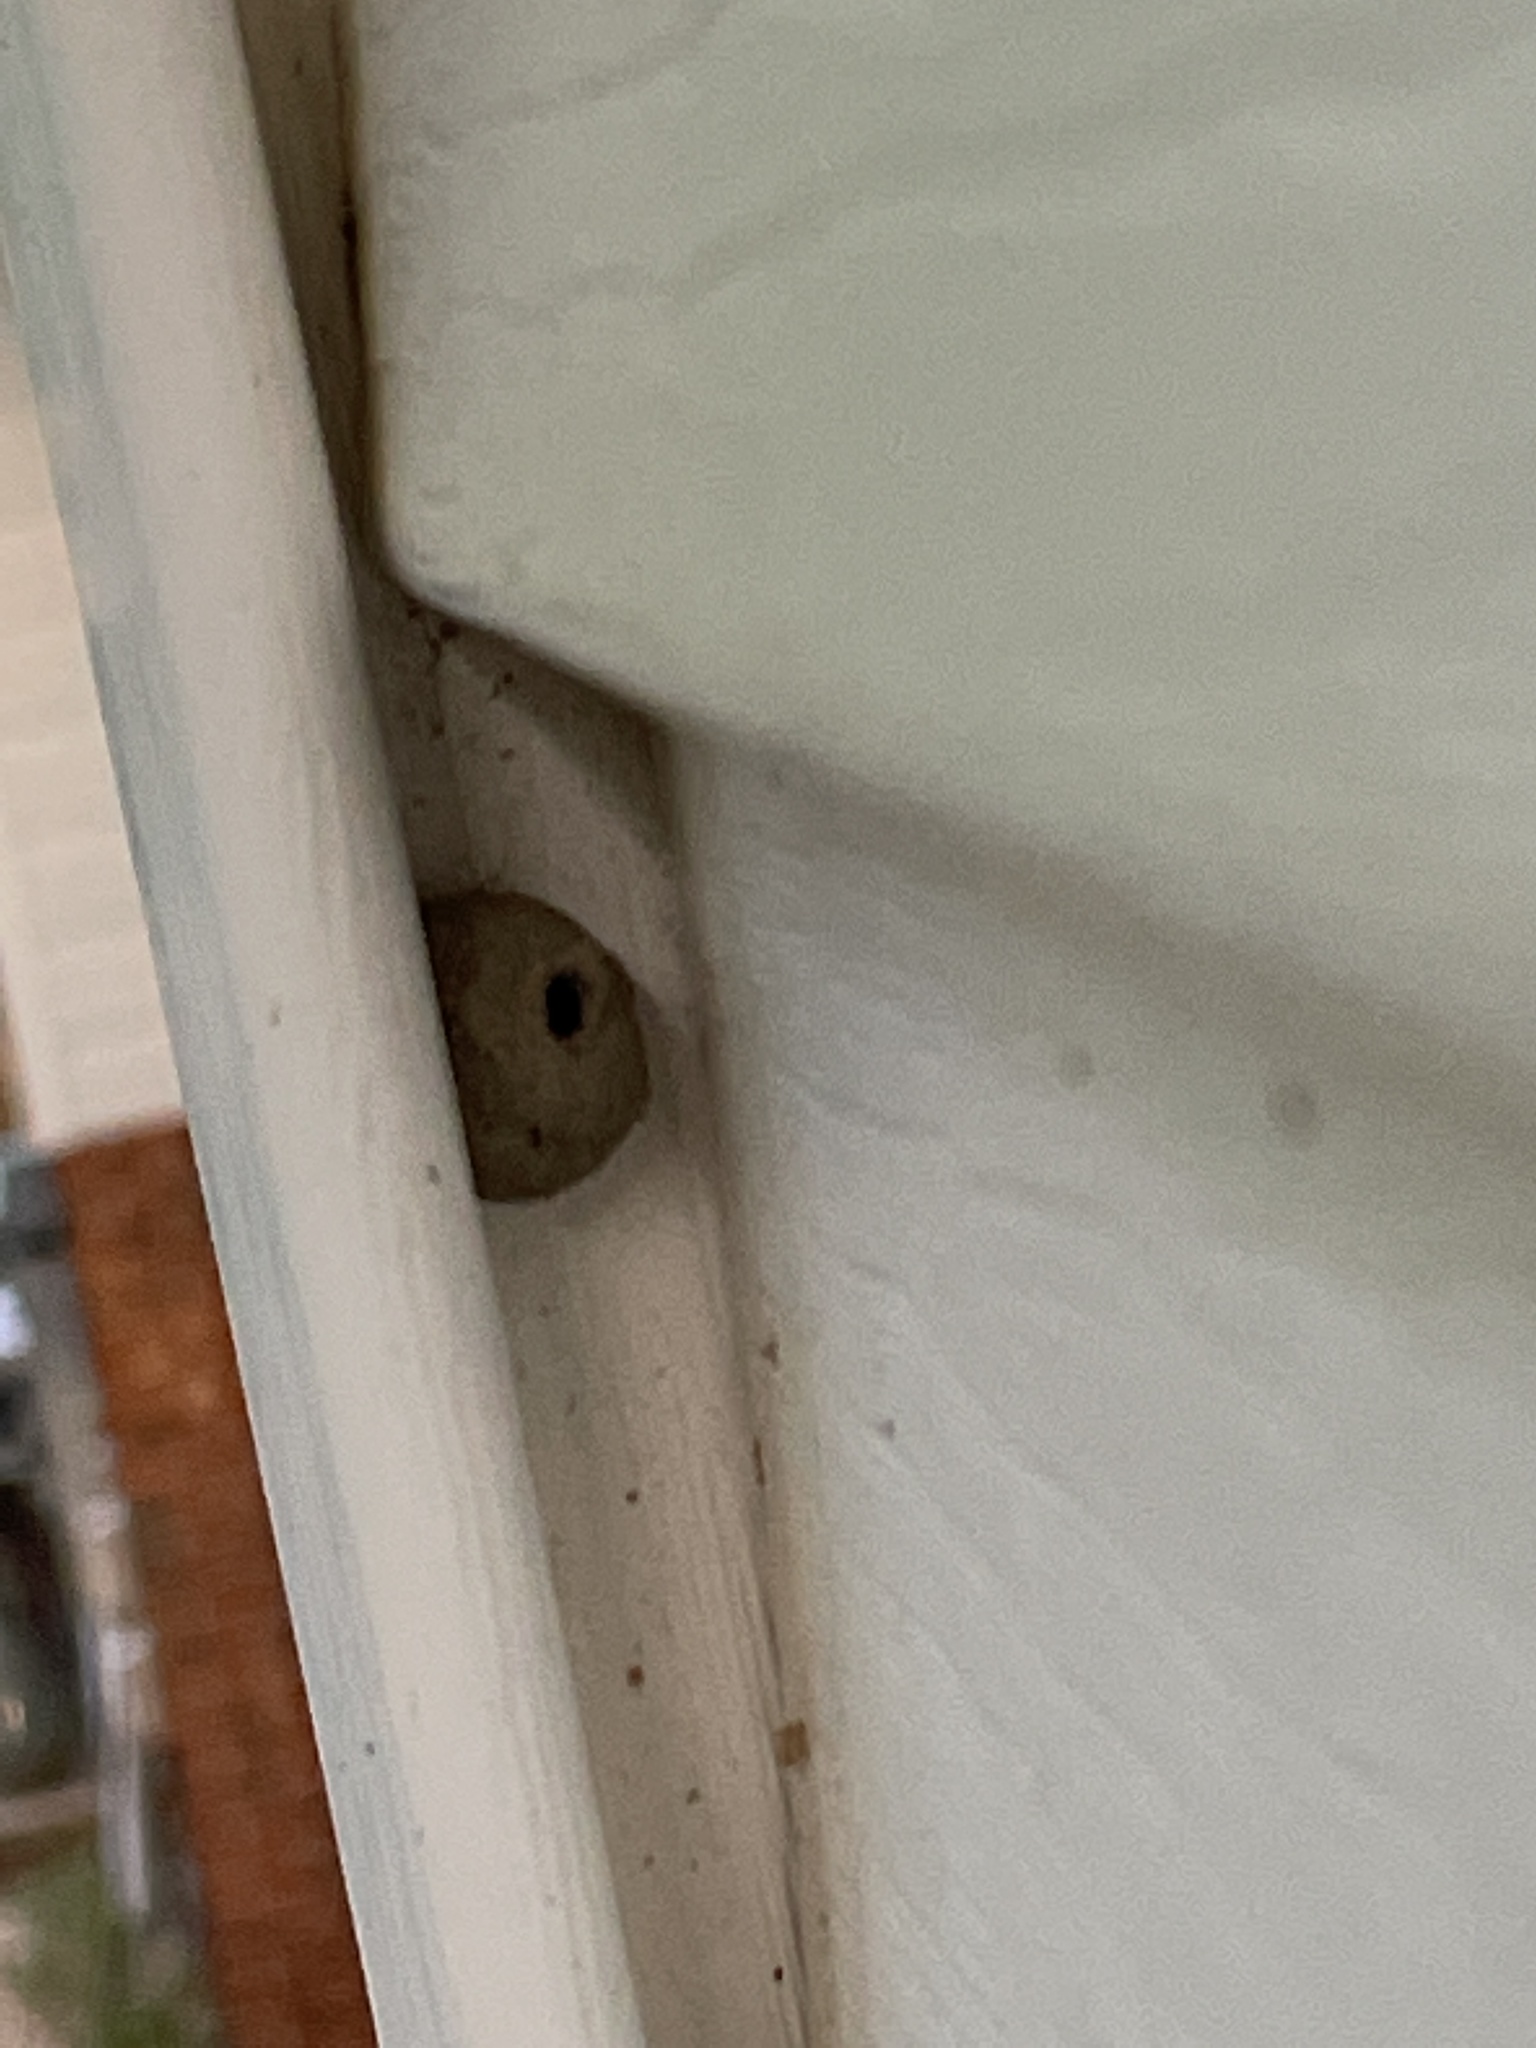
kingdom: Animalia
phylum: Arthropoda
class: Insecta
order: Hymenoptera
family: Vespidae
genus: Eumenes
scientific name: Eumenes
